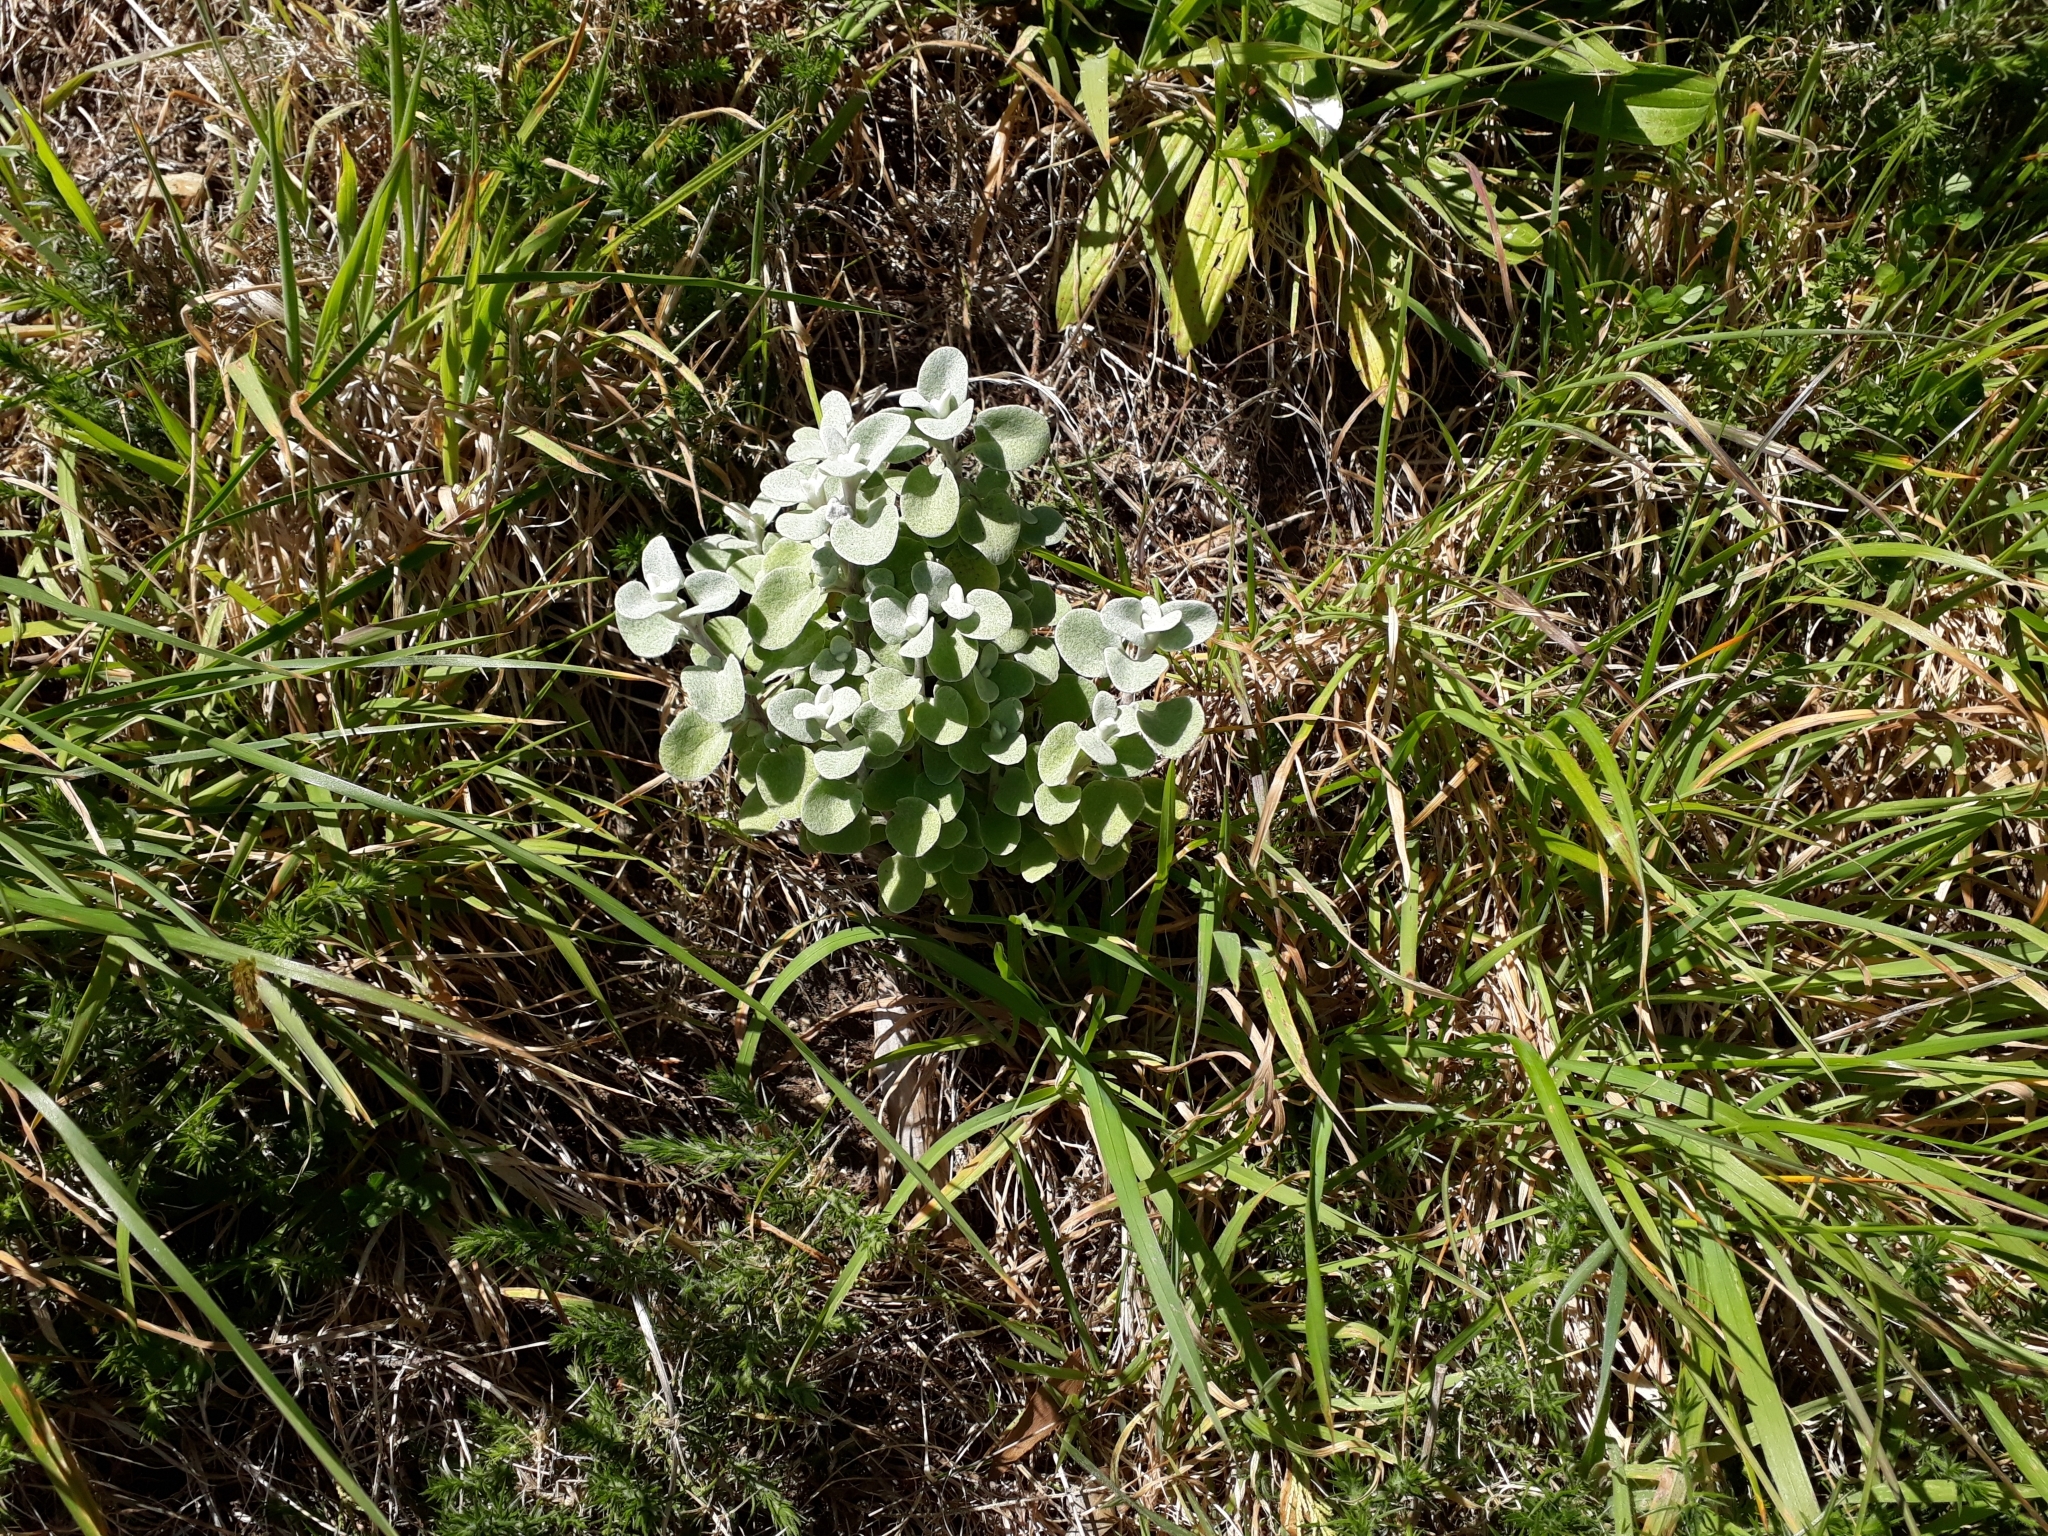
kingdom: Plantae
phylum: Tracheophyta
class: Magnoliopsida
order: Asterales
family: Asteraceae
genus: Helichrysum
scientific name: Helichrysum petiolare
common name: Licorice-plant
